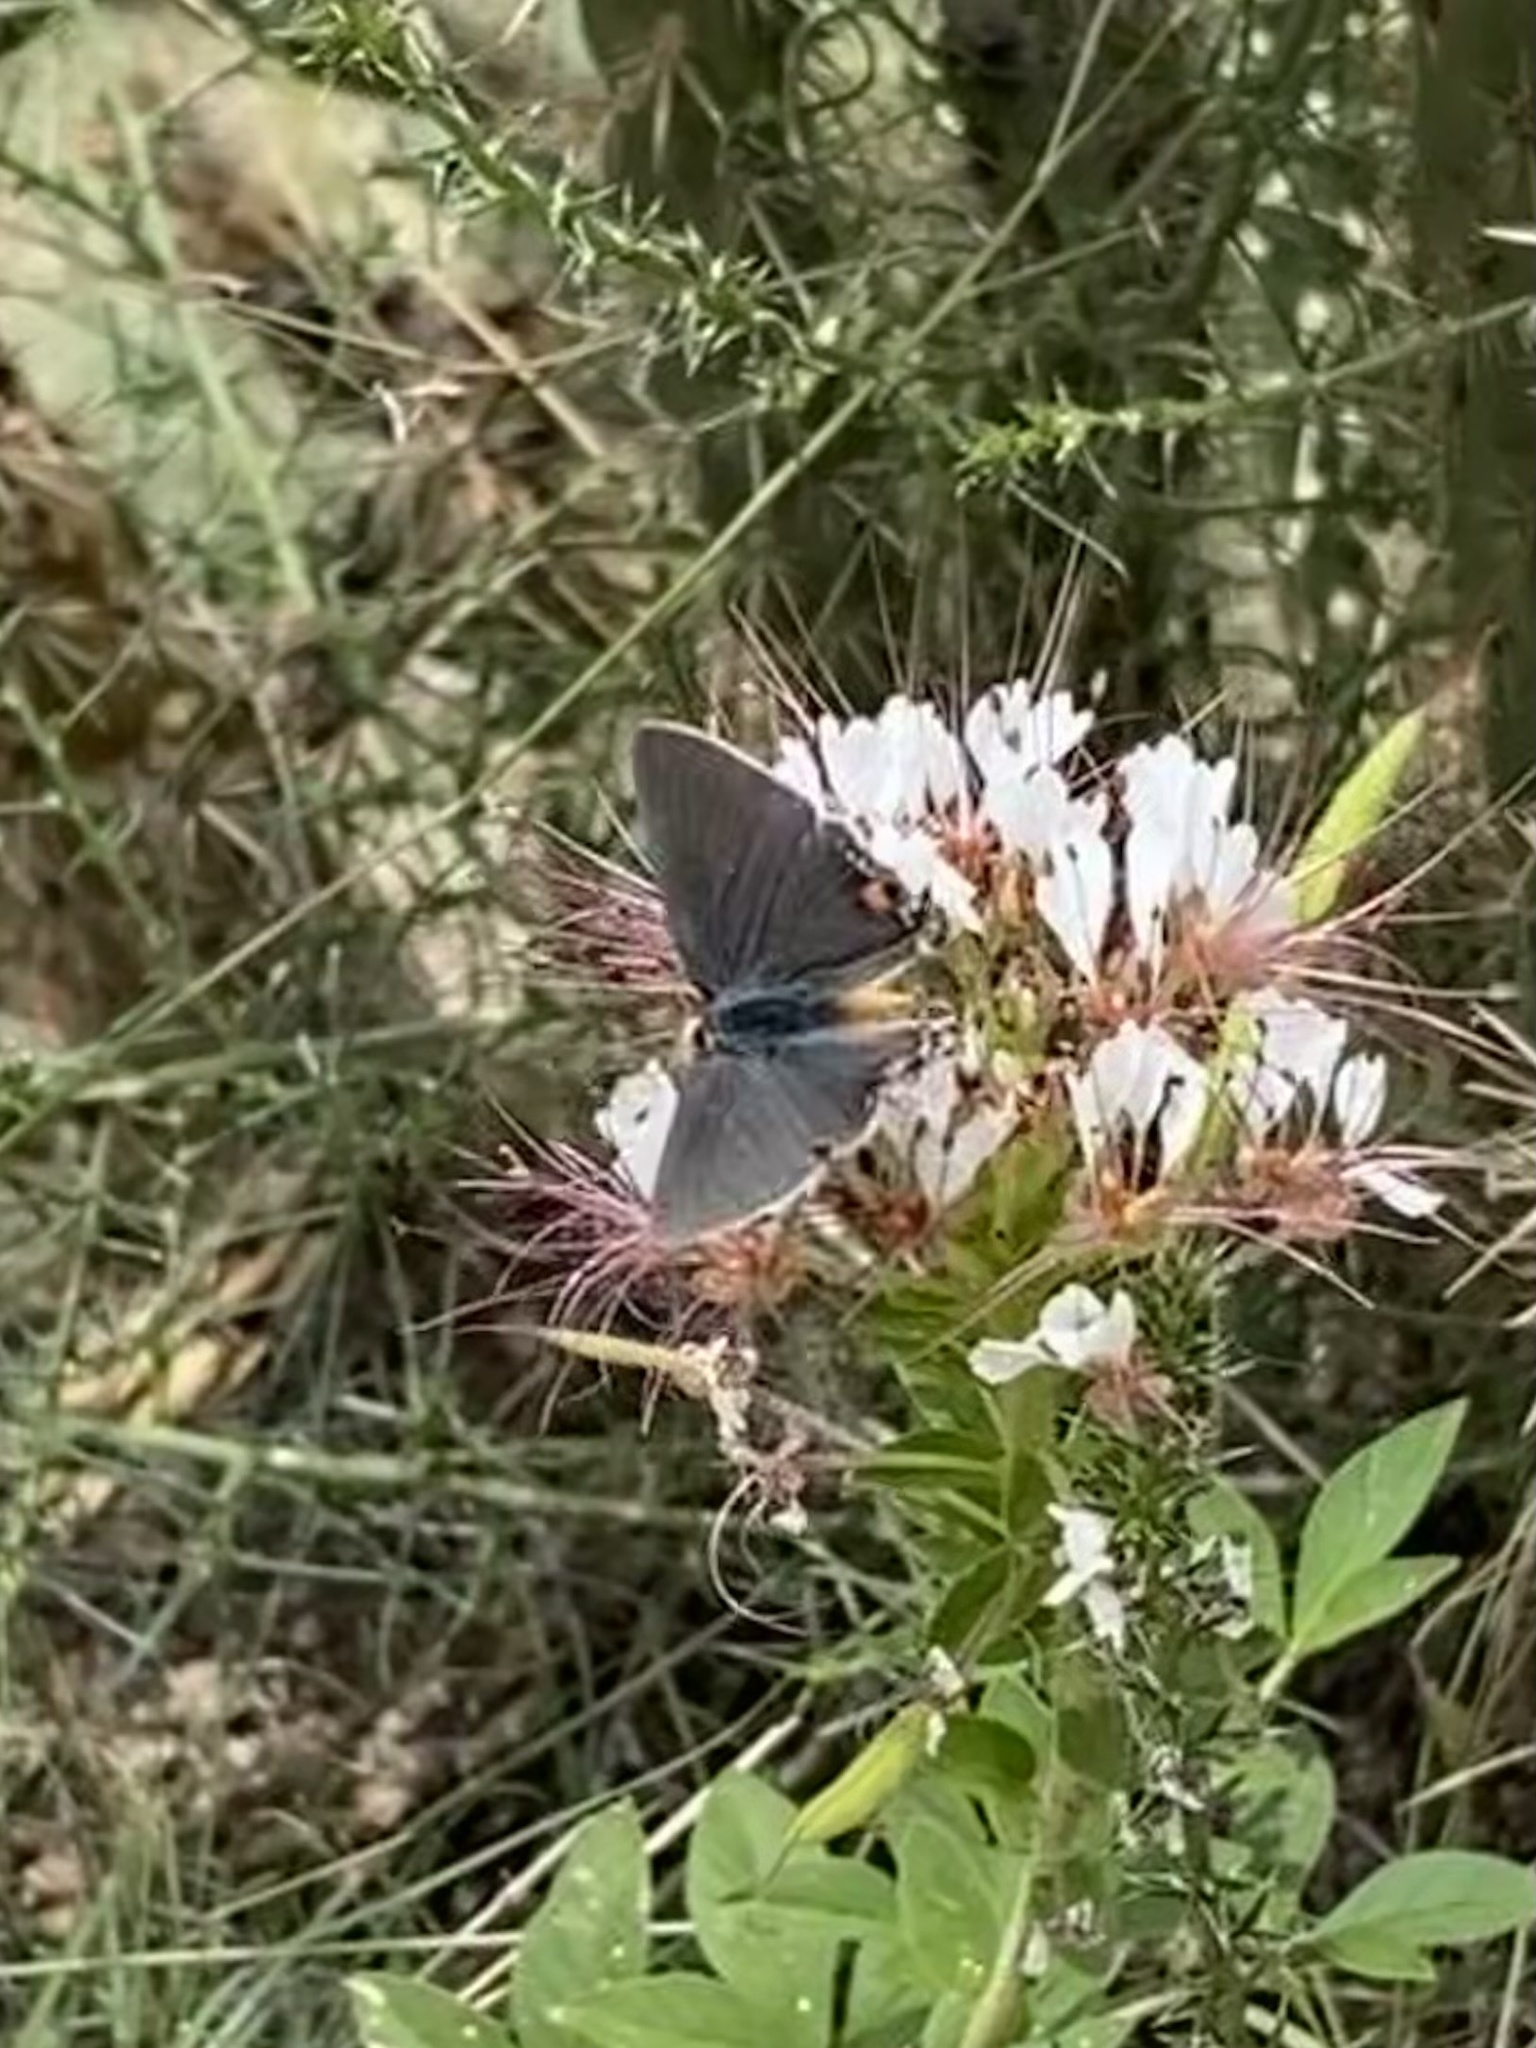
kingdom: Animalia
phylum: Arthropoda
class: Insecta
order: Lepidoptera
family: Lycaenidae
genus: Strymon
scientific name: Strymon melinus
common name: Gray hairstreak
